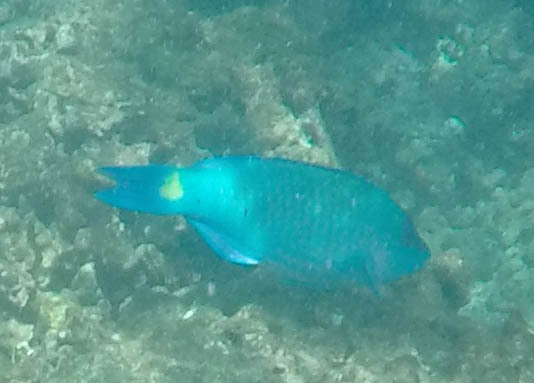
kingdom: Animalia
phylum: Chordata
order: Perciformes
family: Scaridae
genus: Scarus
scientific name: Scarus psittacus
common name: Palenose parrotfish
